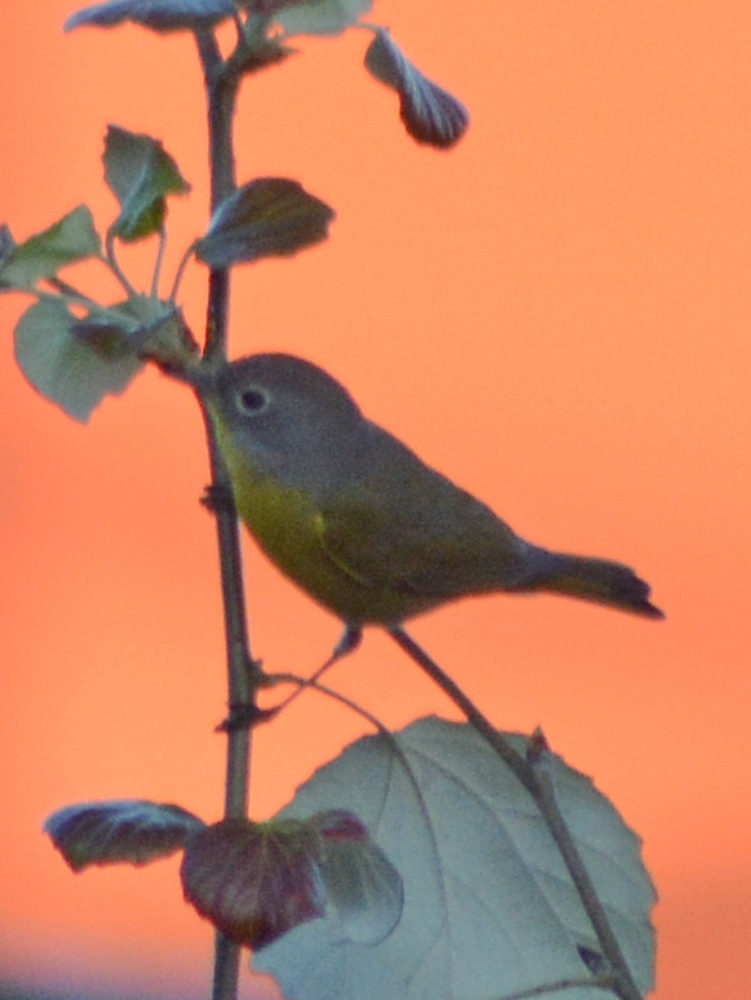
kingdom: Animalia
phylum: Chordata
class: Aves
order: Passeriformes
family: Parulidae
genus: Leiothlypis
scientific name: Leiothlypis ruficapilla
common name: Nashville warbler
